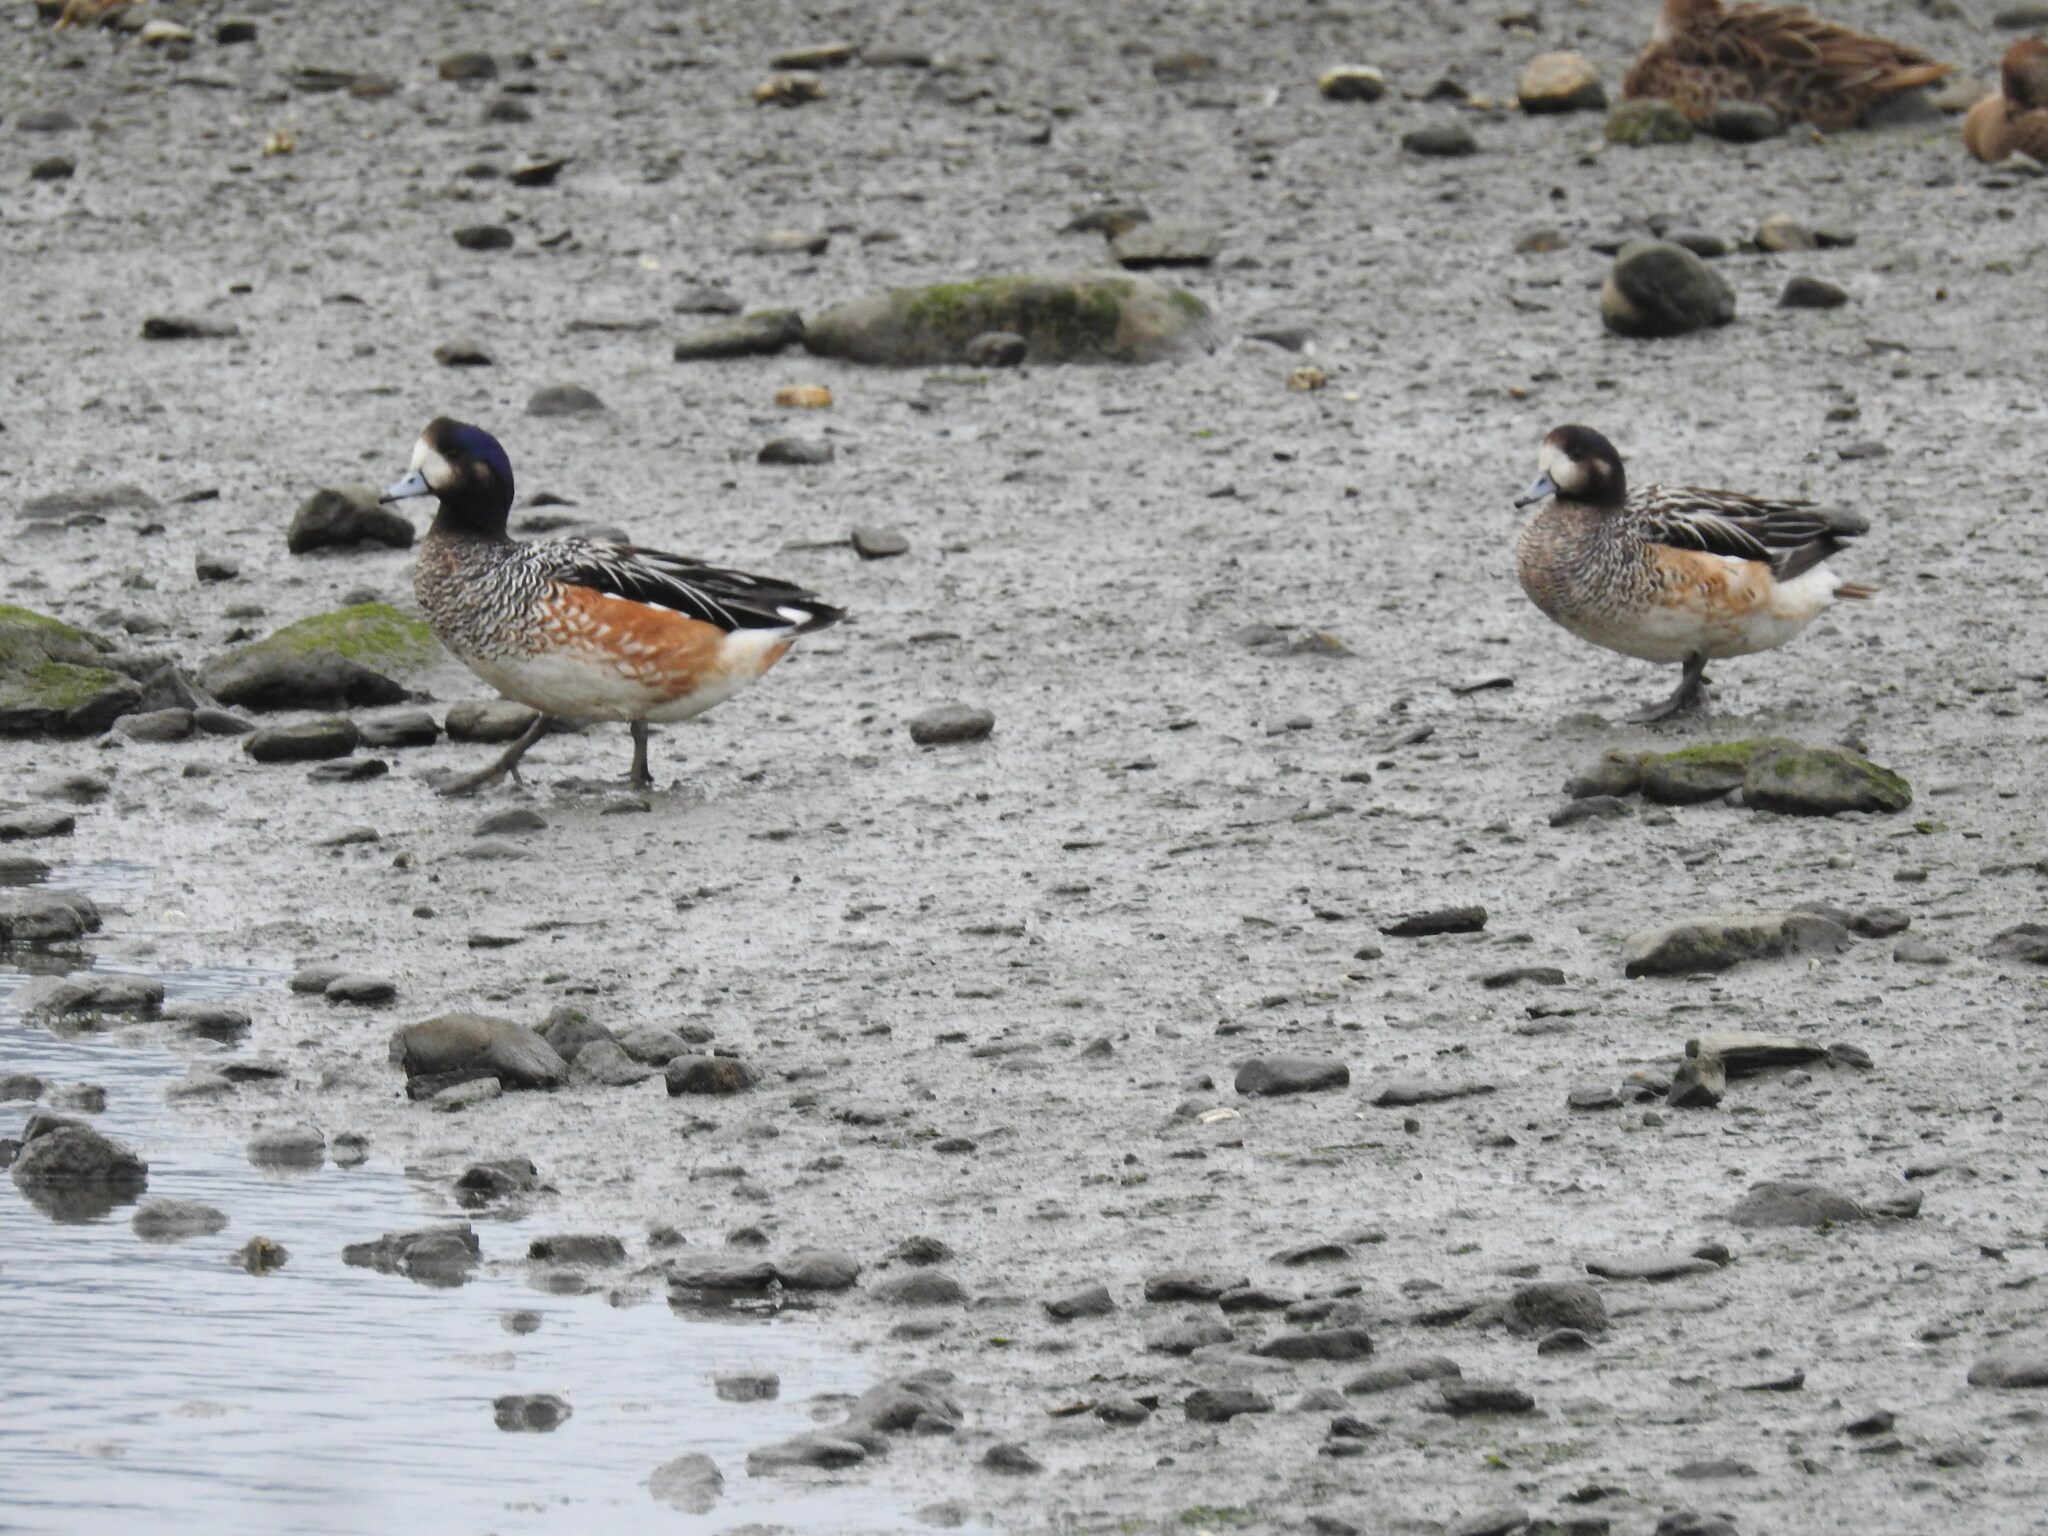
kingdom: Animalia
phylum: Chordata
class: Aves
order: Anseriformes
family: Anatidae
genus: Mareca
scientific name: Mareca sibilatrix
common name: Chiloe wigeon
